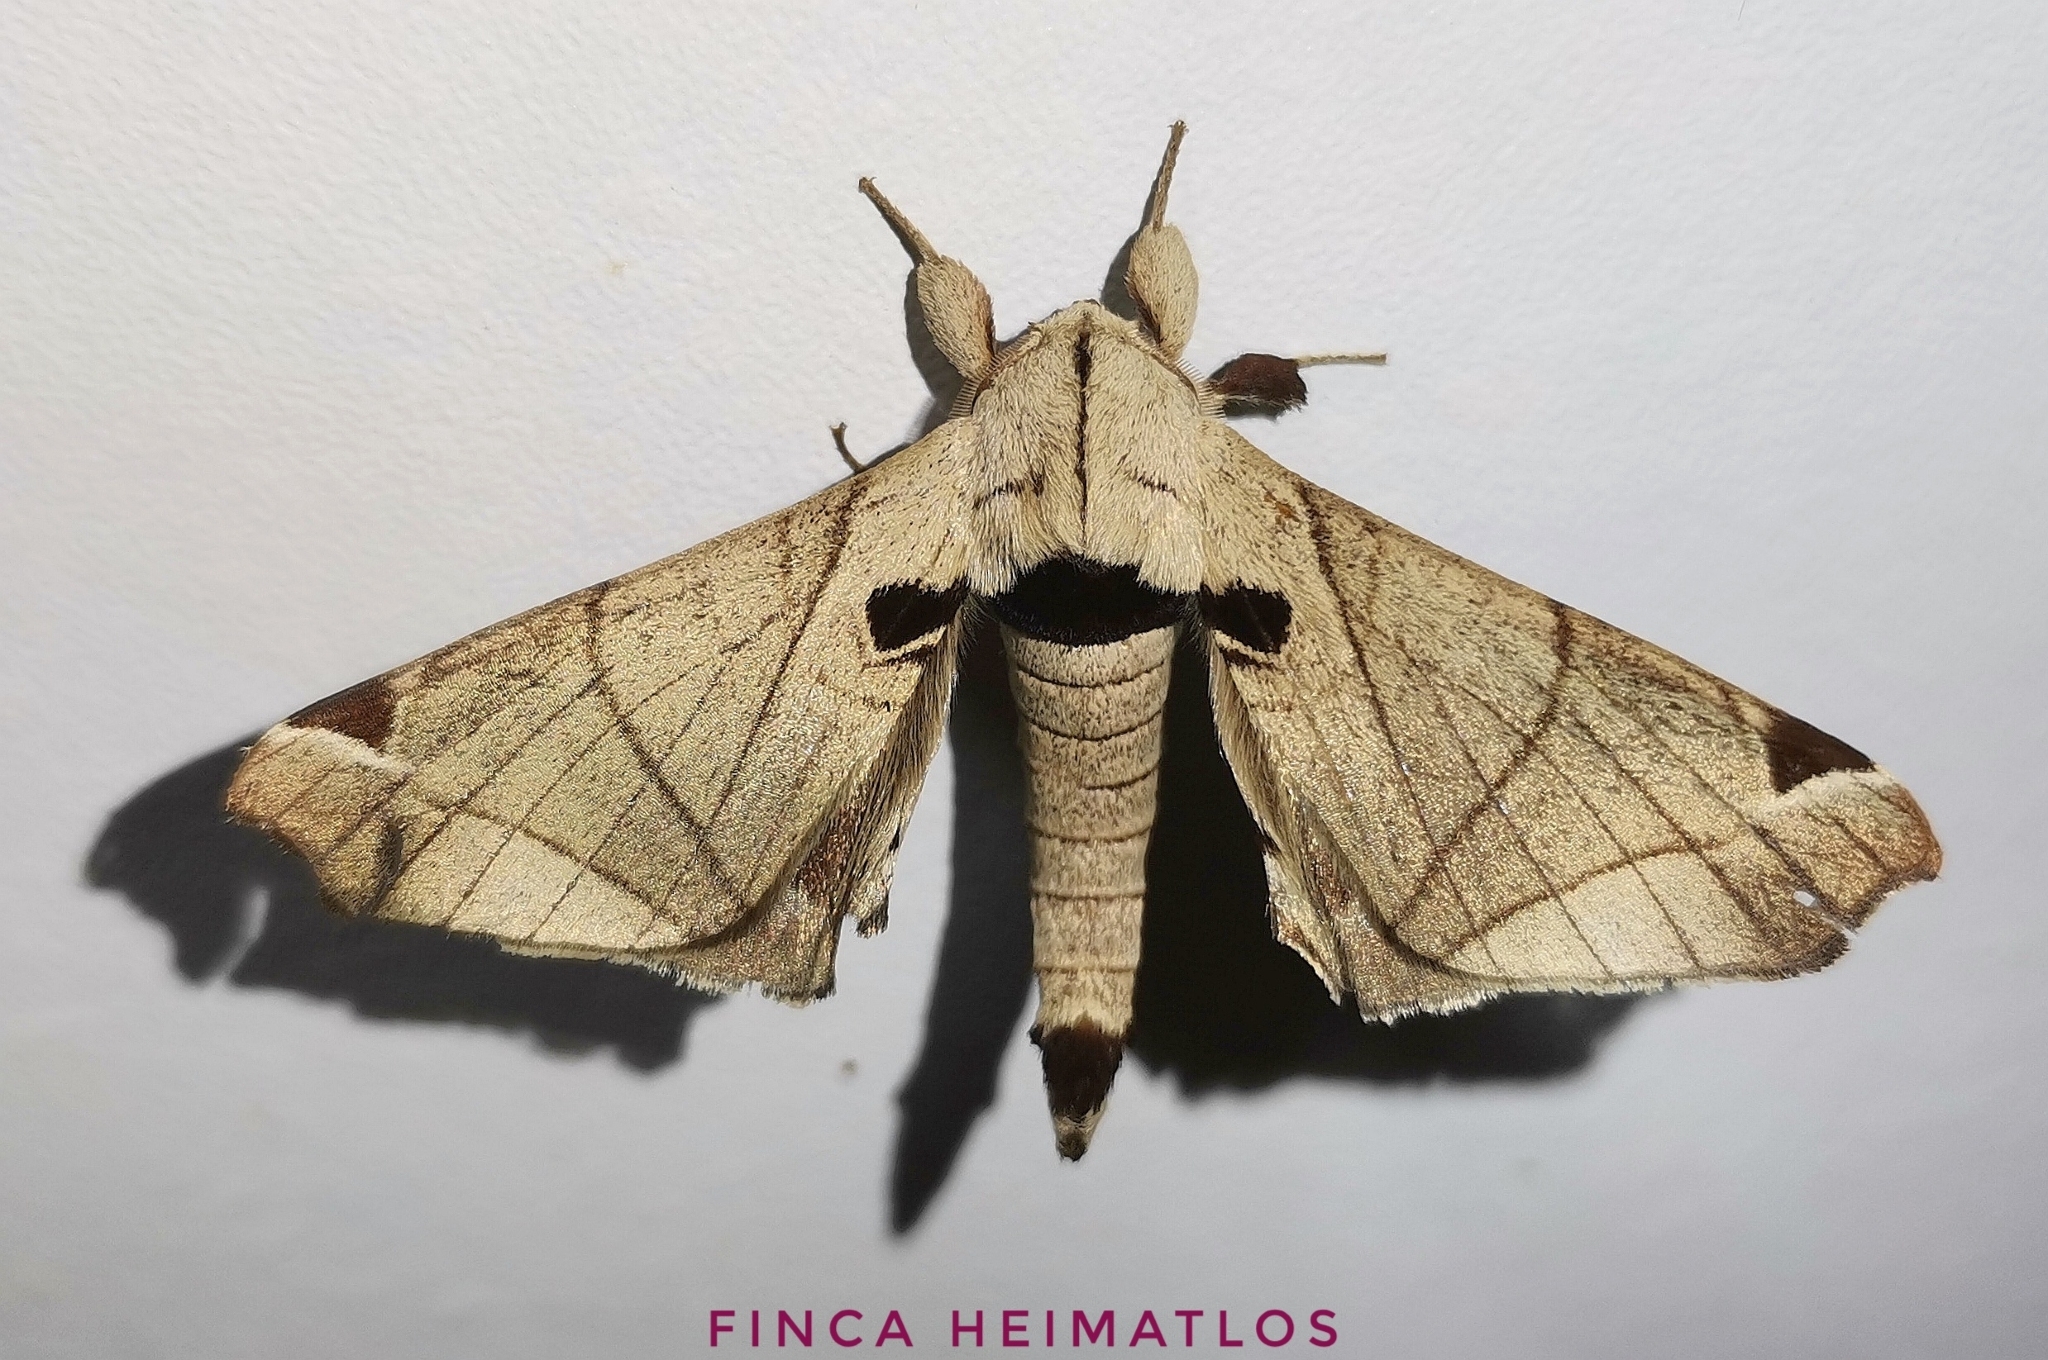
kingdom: Animalia
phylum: Arthropoda
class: Insecta
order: Lepidoptera
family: Apatelodidae
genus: Hygrochroa
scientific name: Hygrochroa Apatelodes pandara
